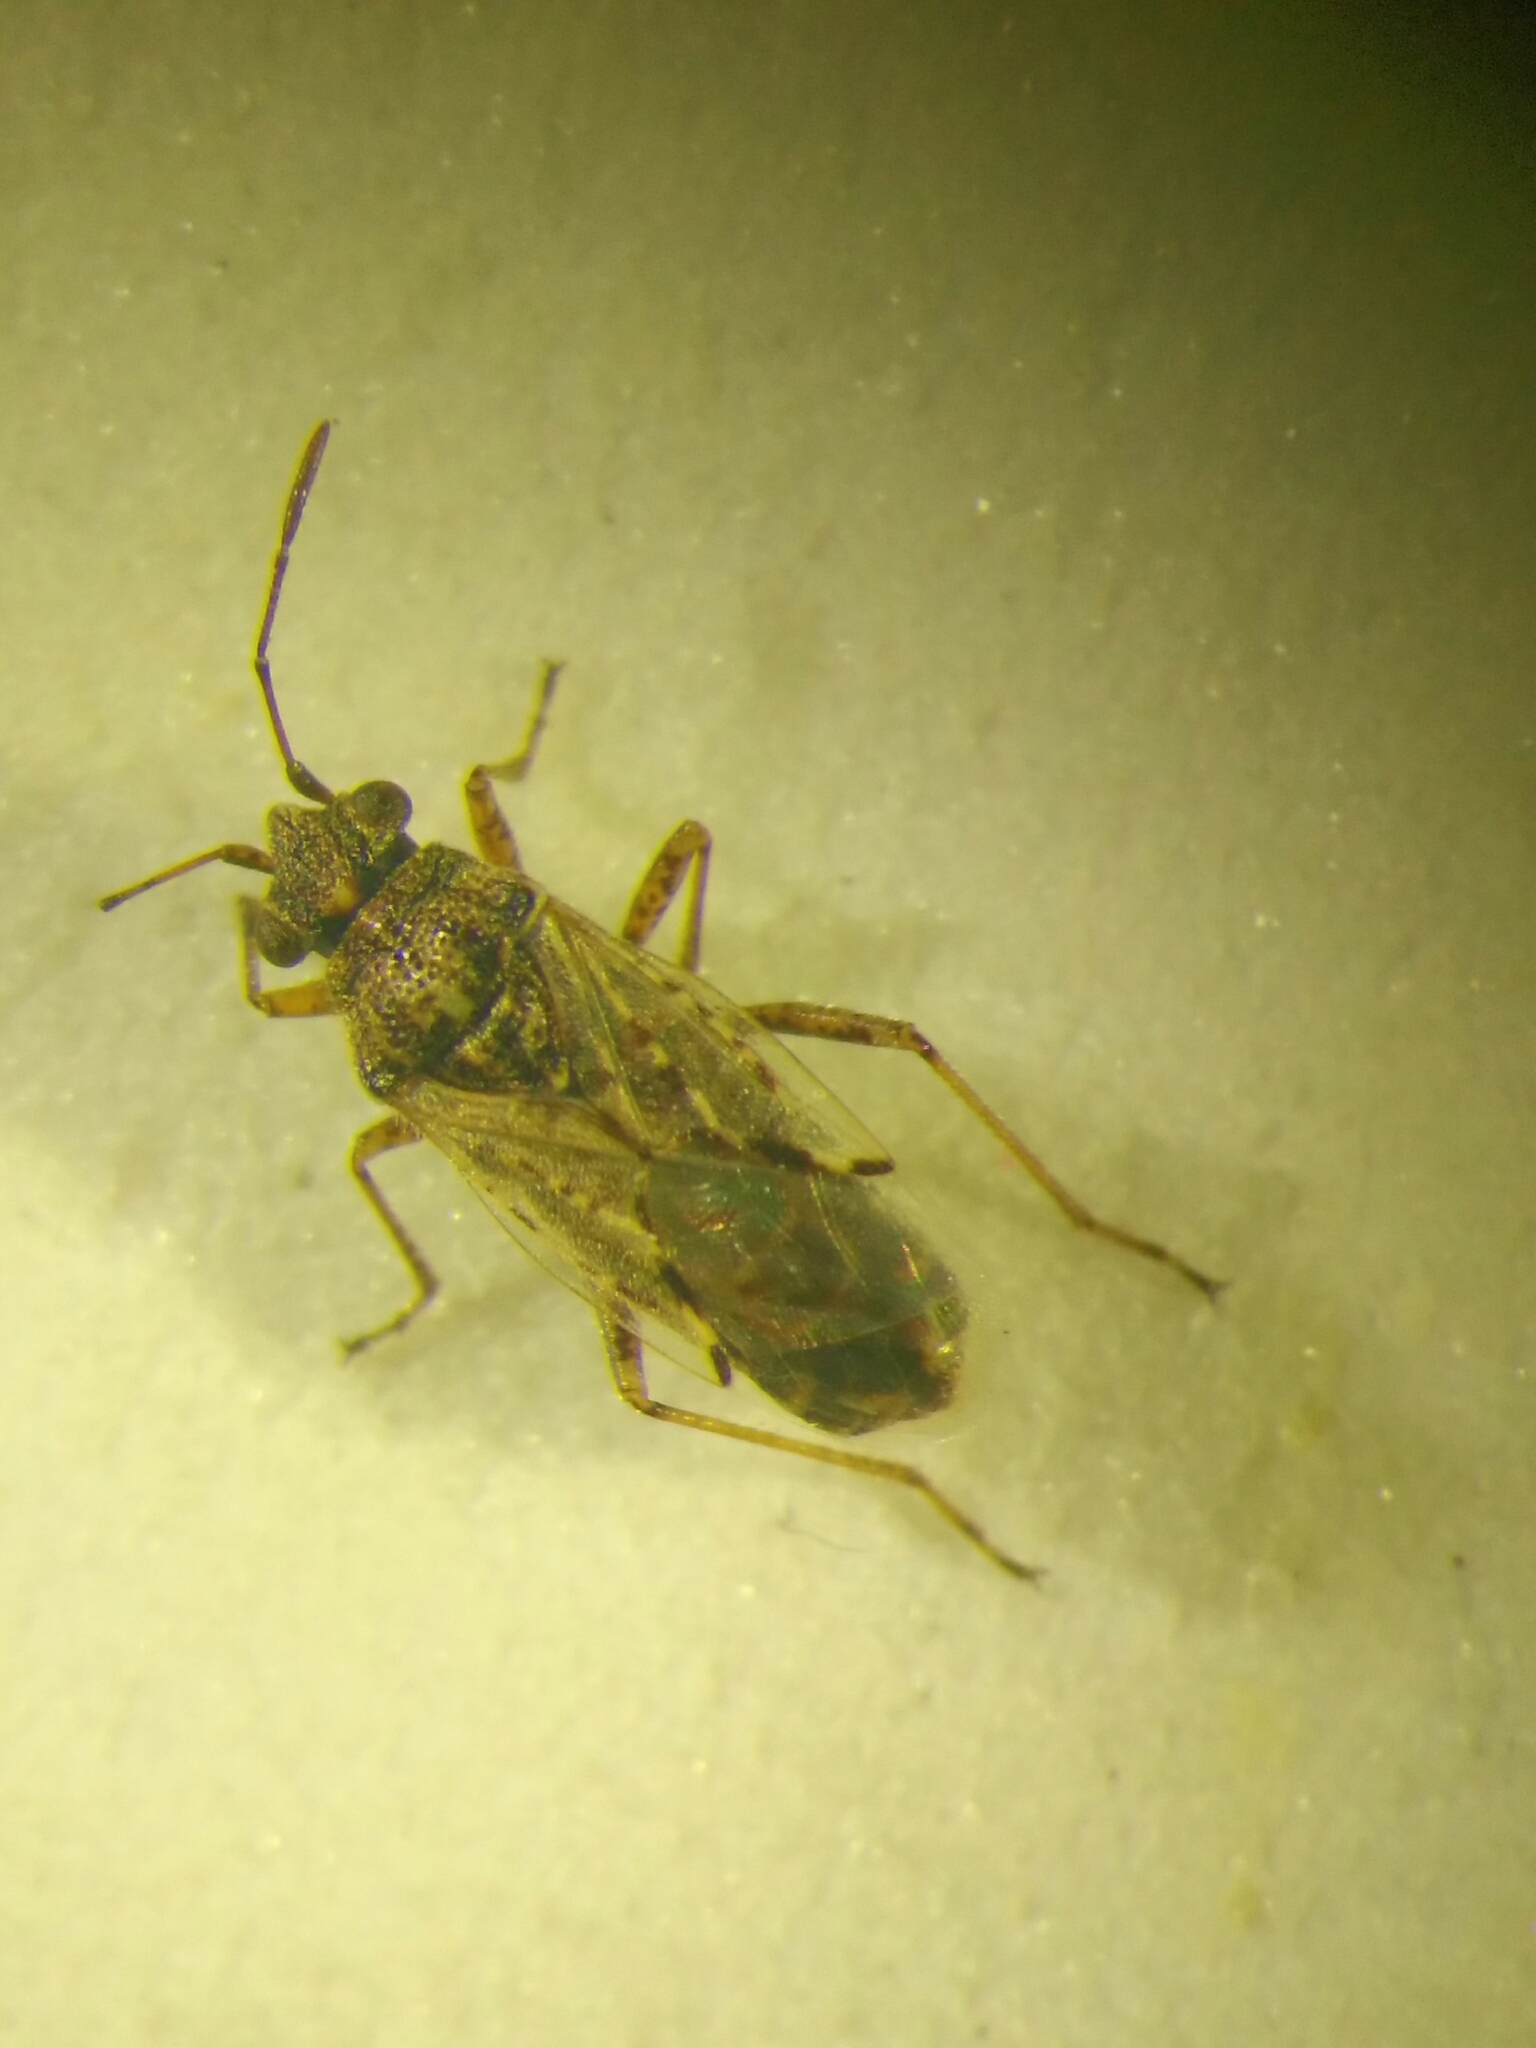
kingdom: Animalia
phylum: Arthropoda
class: Insecta
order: Hemiptera
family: Lygaeidae
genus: Nysius
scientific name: Nysius ericae
